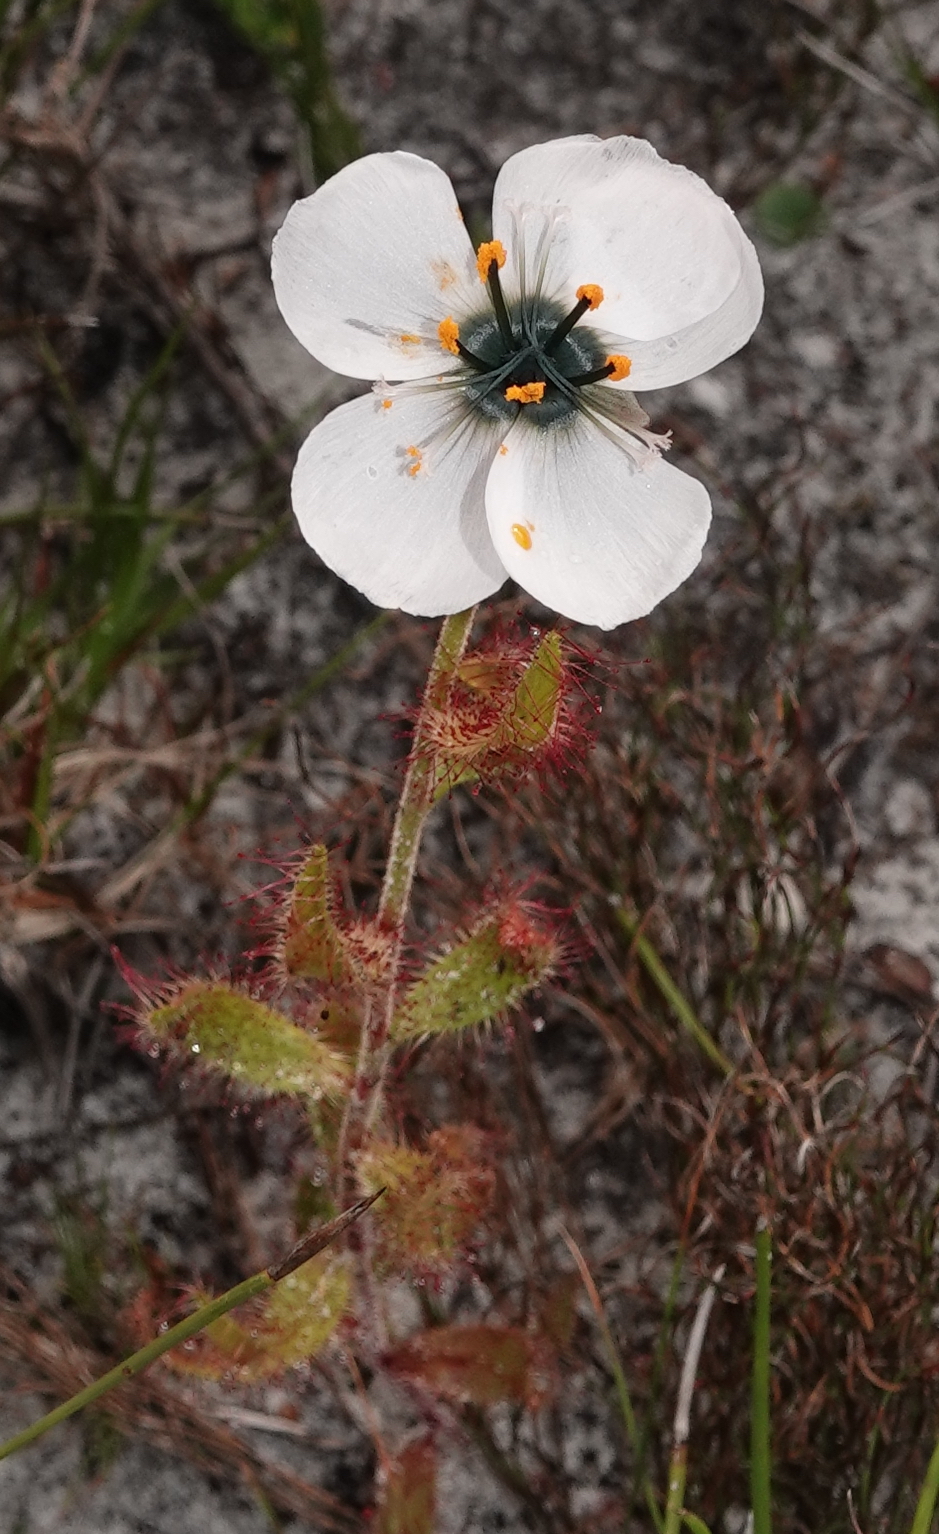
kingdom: Plantae
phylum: Tracheophyta
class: Magnoliopsida
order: Caryophyllales
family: Droseraceae
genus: Drosera
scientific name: Drosera cistiflora
